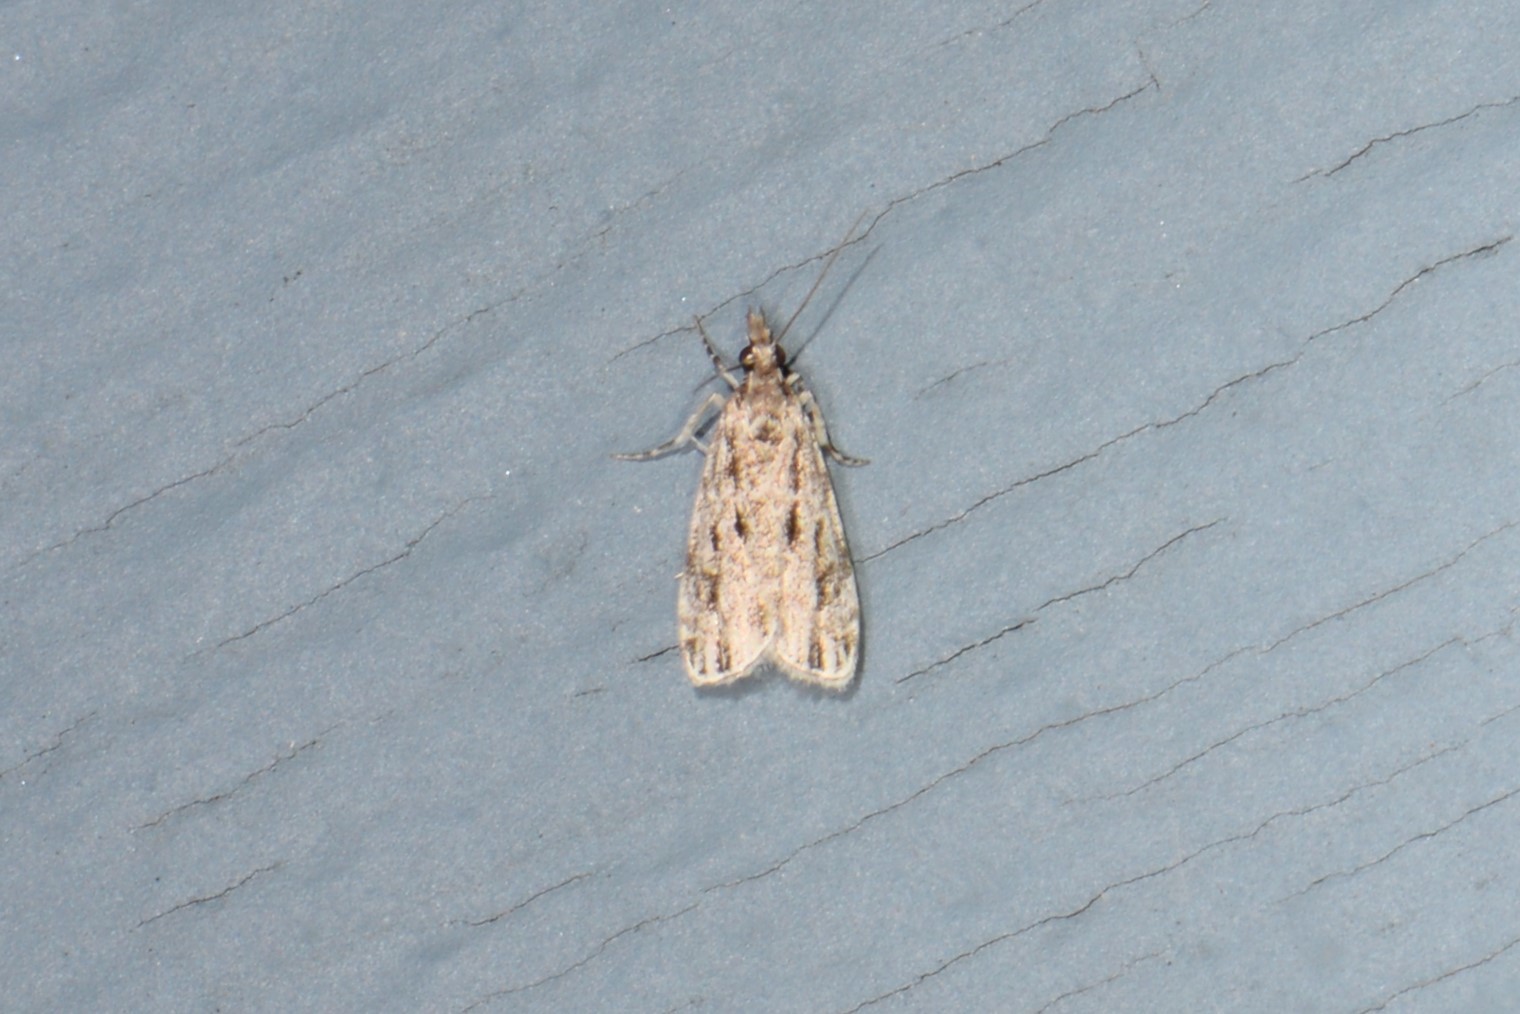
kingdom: Animalia
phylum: Arthropoda
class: Insecta
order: Lepidoptera
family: Crambidae
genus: Eudonia
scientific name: Eudonia strigalis
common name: Striped eudonia moth
